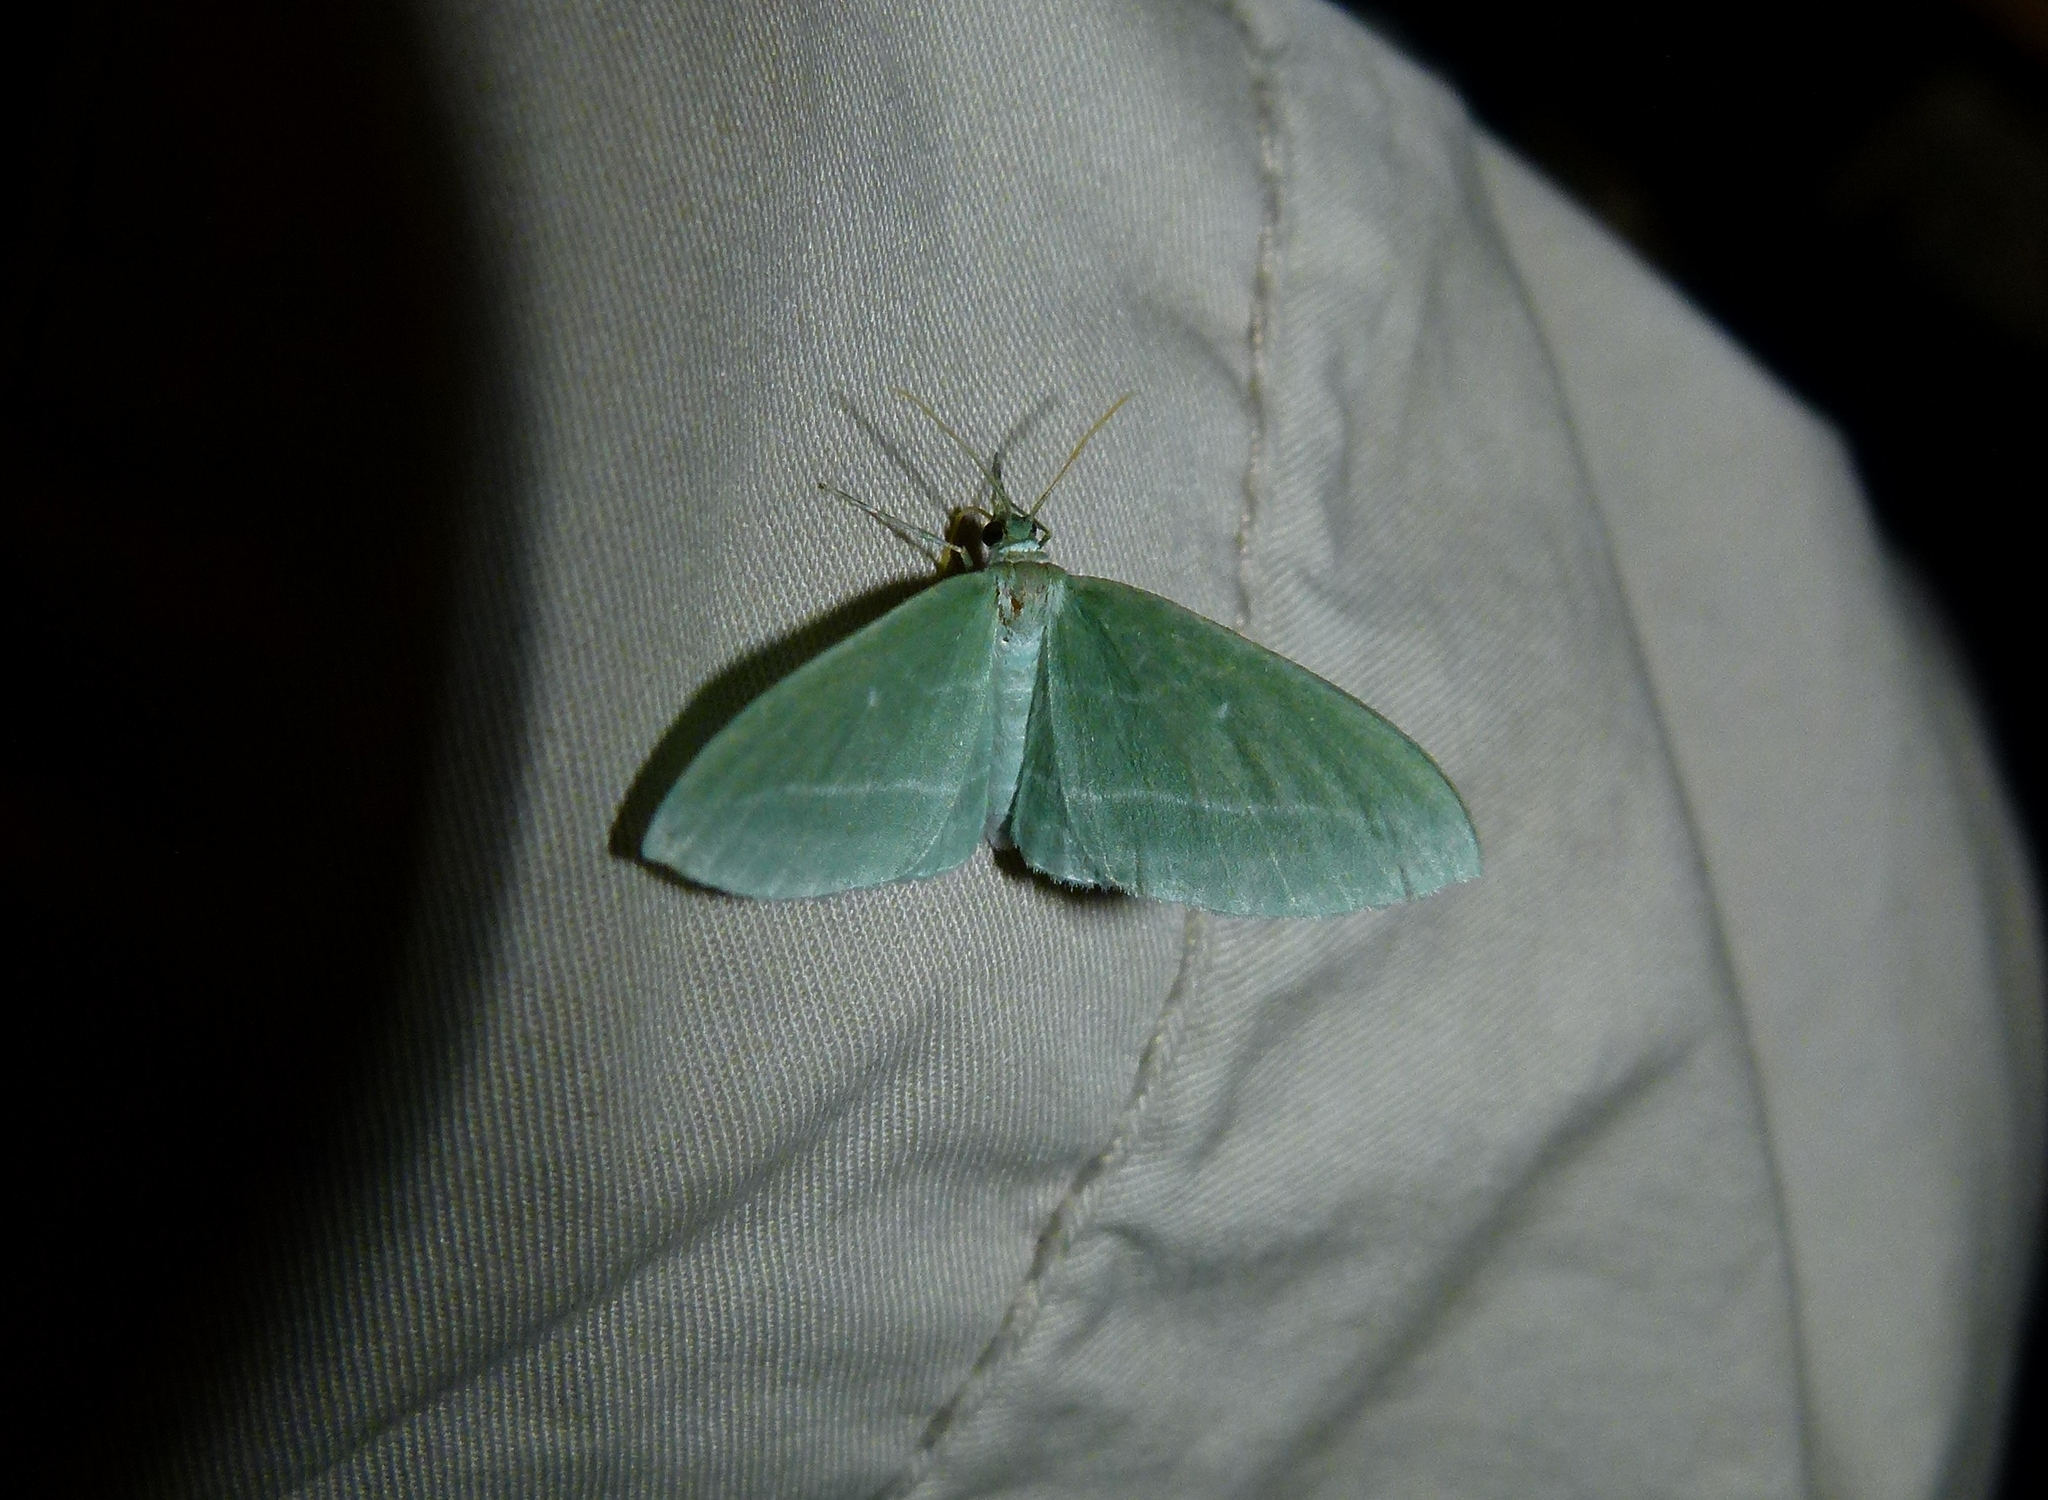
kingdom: Animalia
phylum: Arthropoda
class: Insecta
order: Lepidoptera
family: Geometridae
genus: Dyspteris
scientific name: Dyspteris abortivaria
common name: Bad-wing
